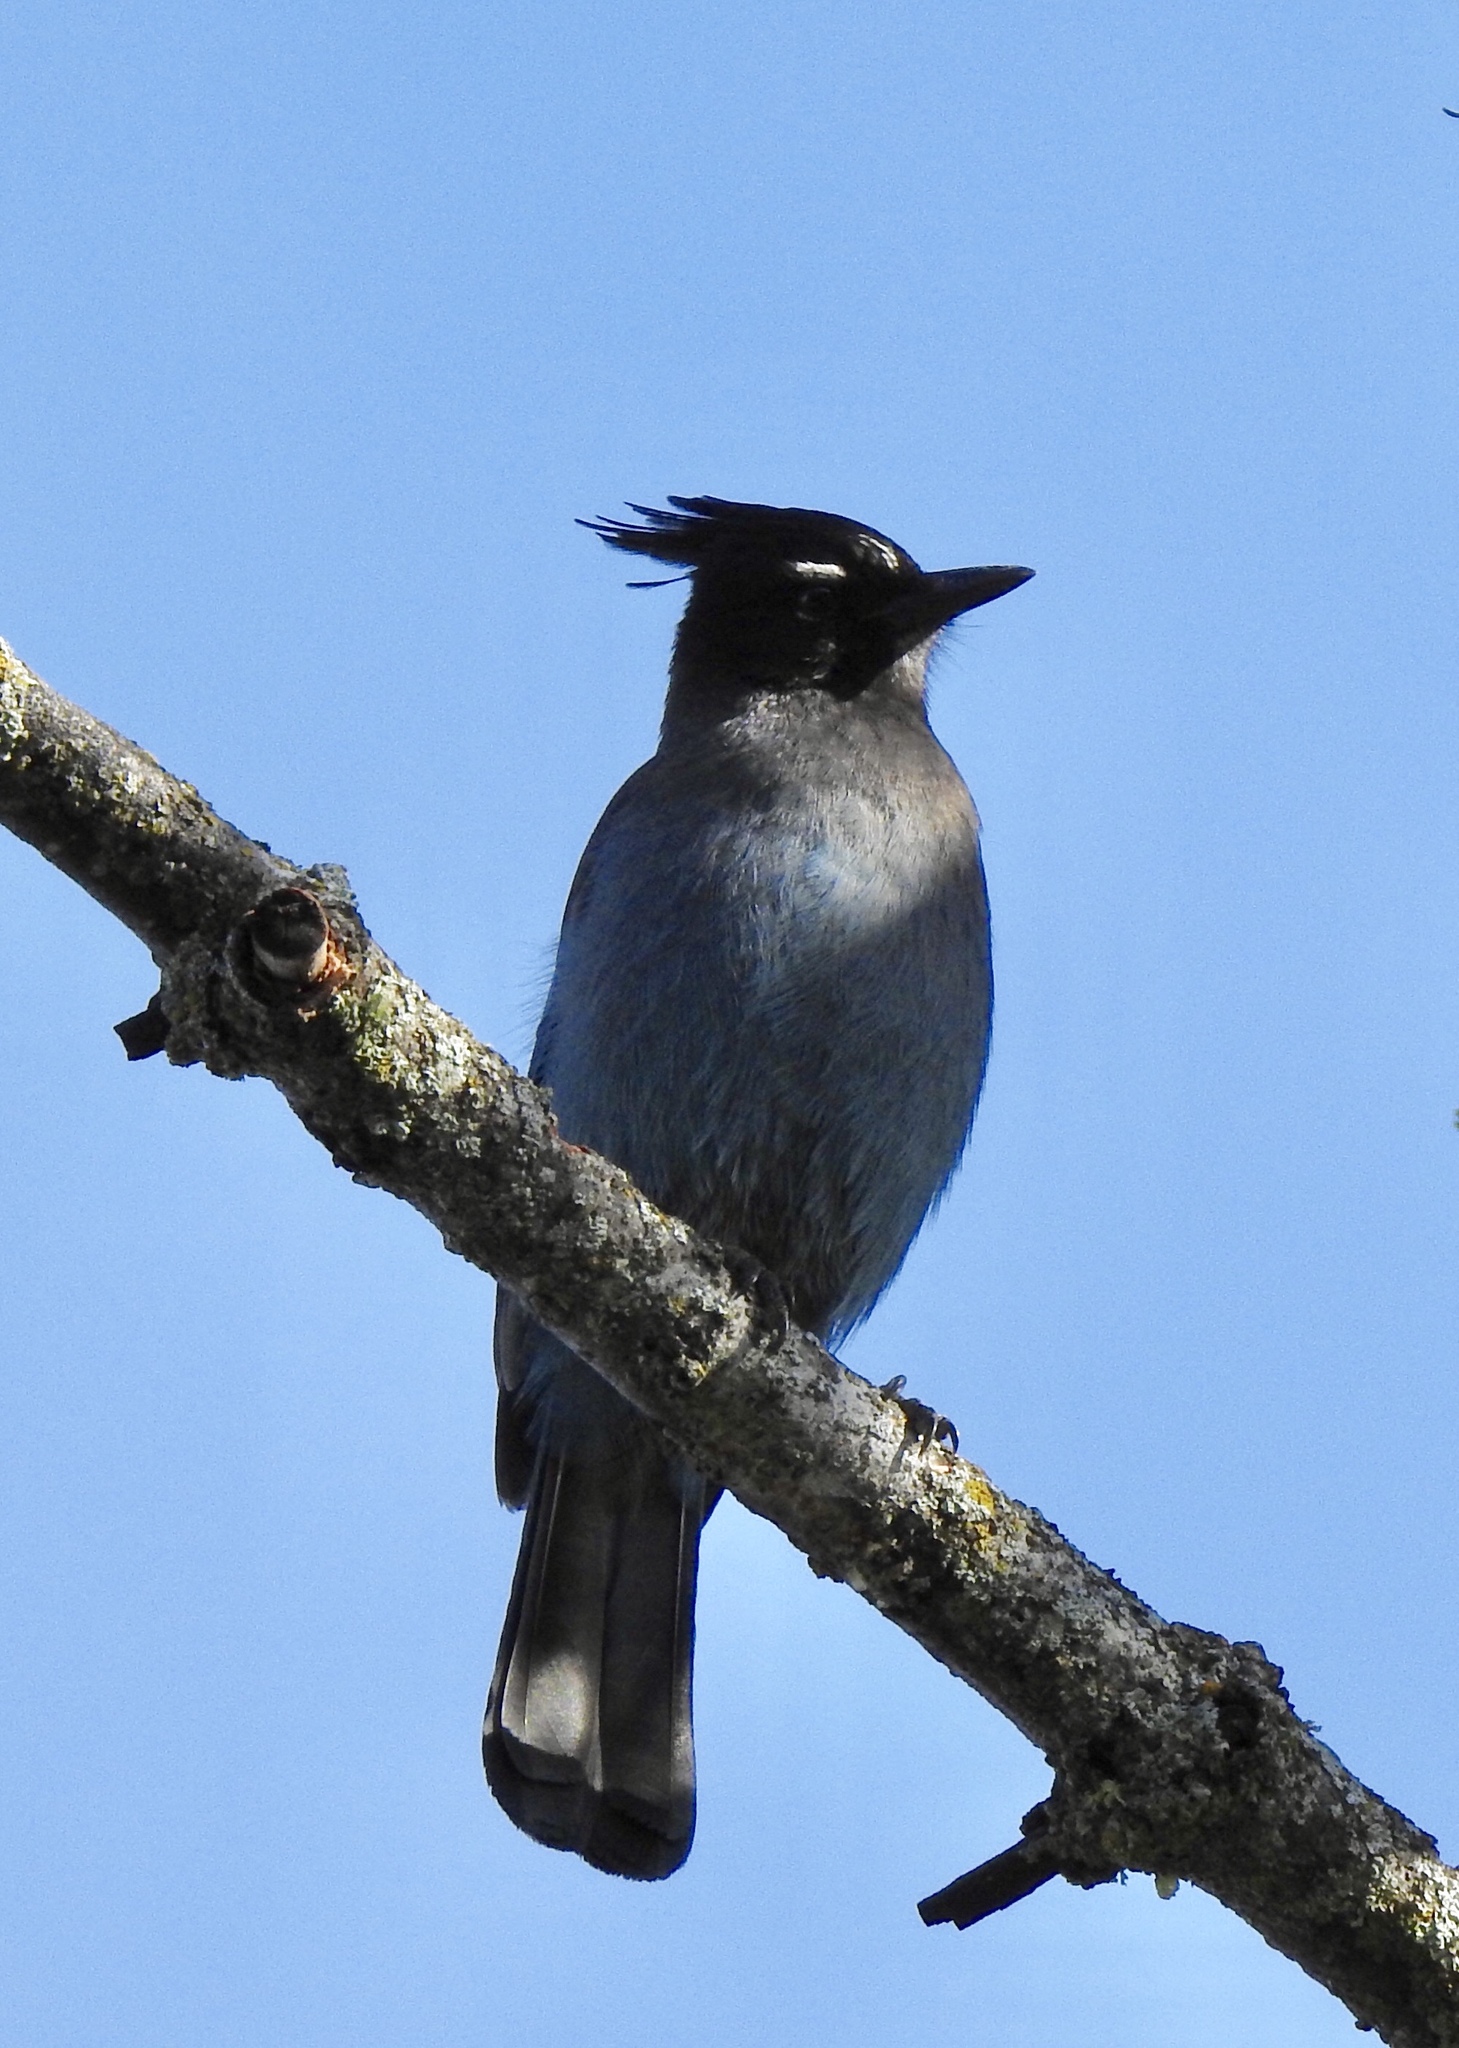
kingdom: Animalia
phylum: Chordata
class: Aves
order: Passeriformes
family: Corvidae
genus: Cyanocitta
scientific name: Cyanocitta stelleri
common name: Steller's jay
